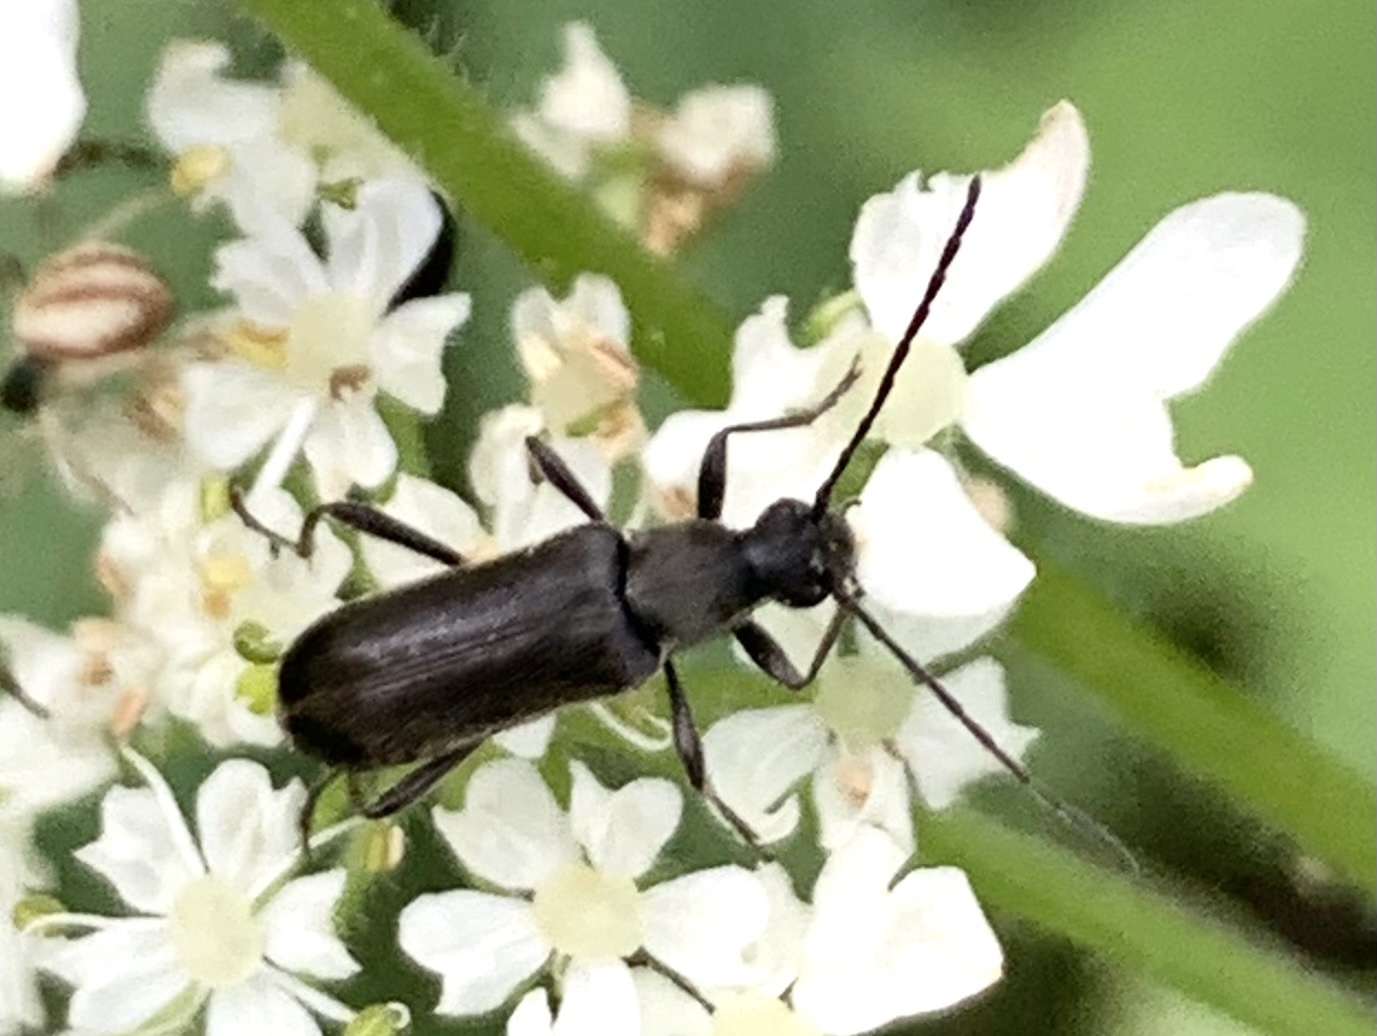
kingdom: Animalia
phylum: Arthropoda
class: Insecta
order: Coleoptera
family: Cerambycidae
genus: Grammoptera
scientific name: Grammoptera subargentata
